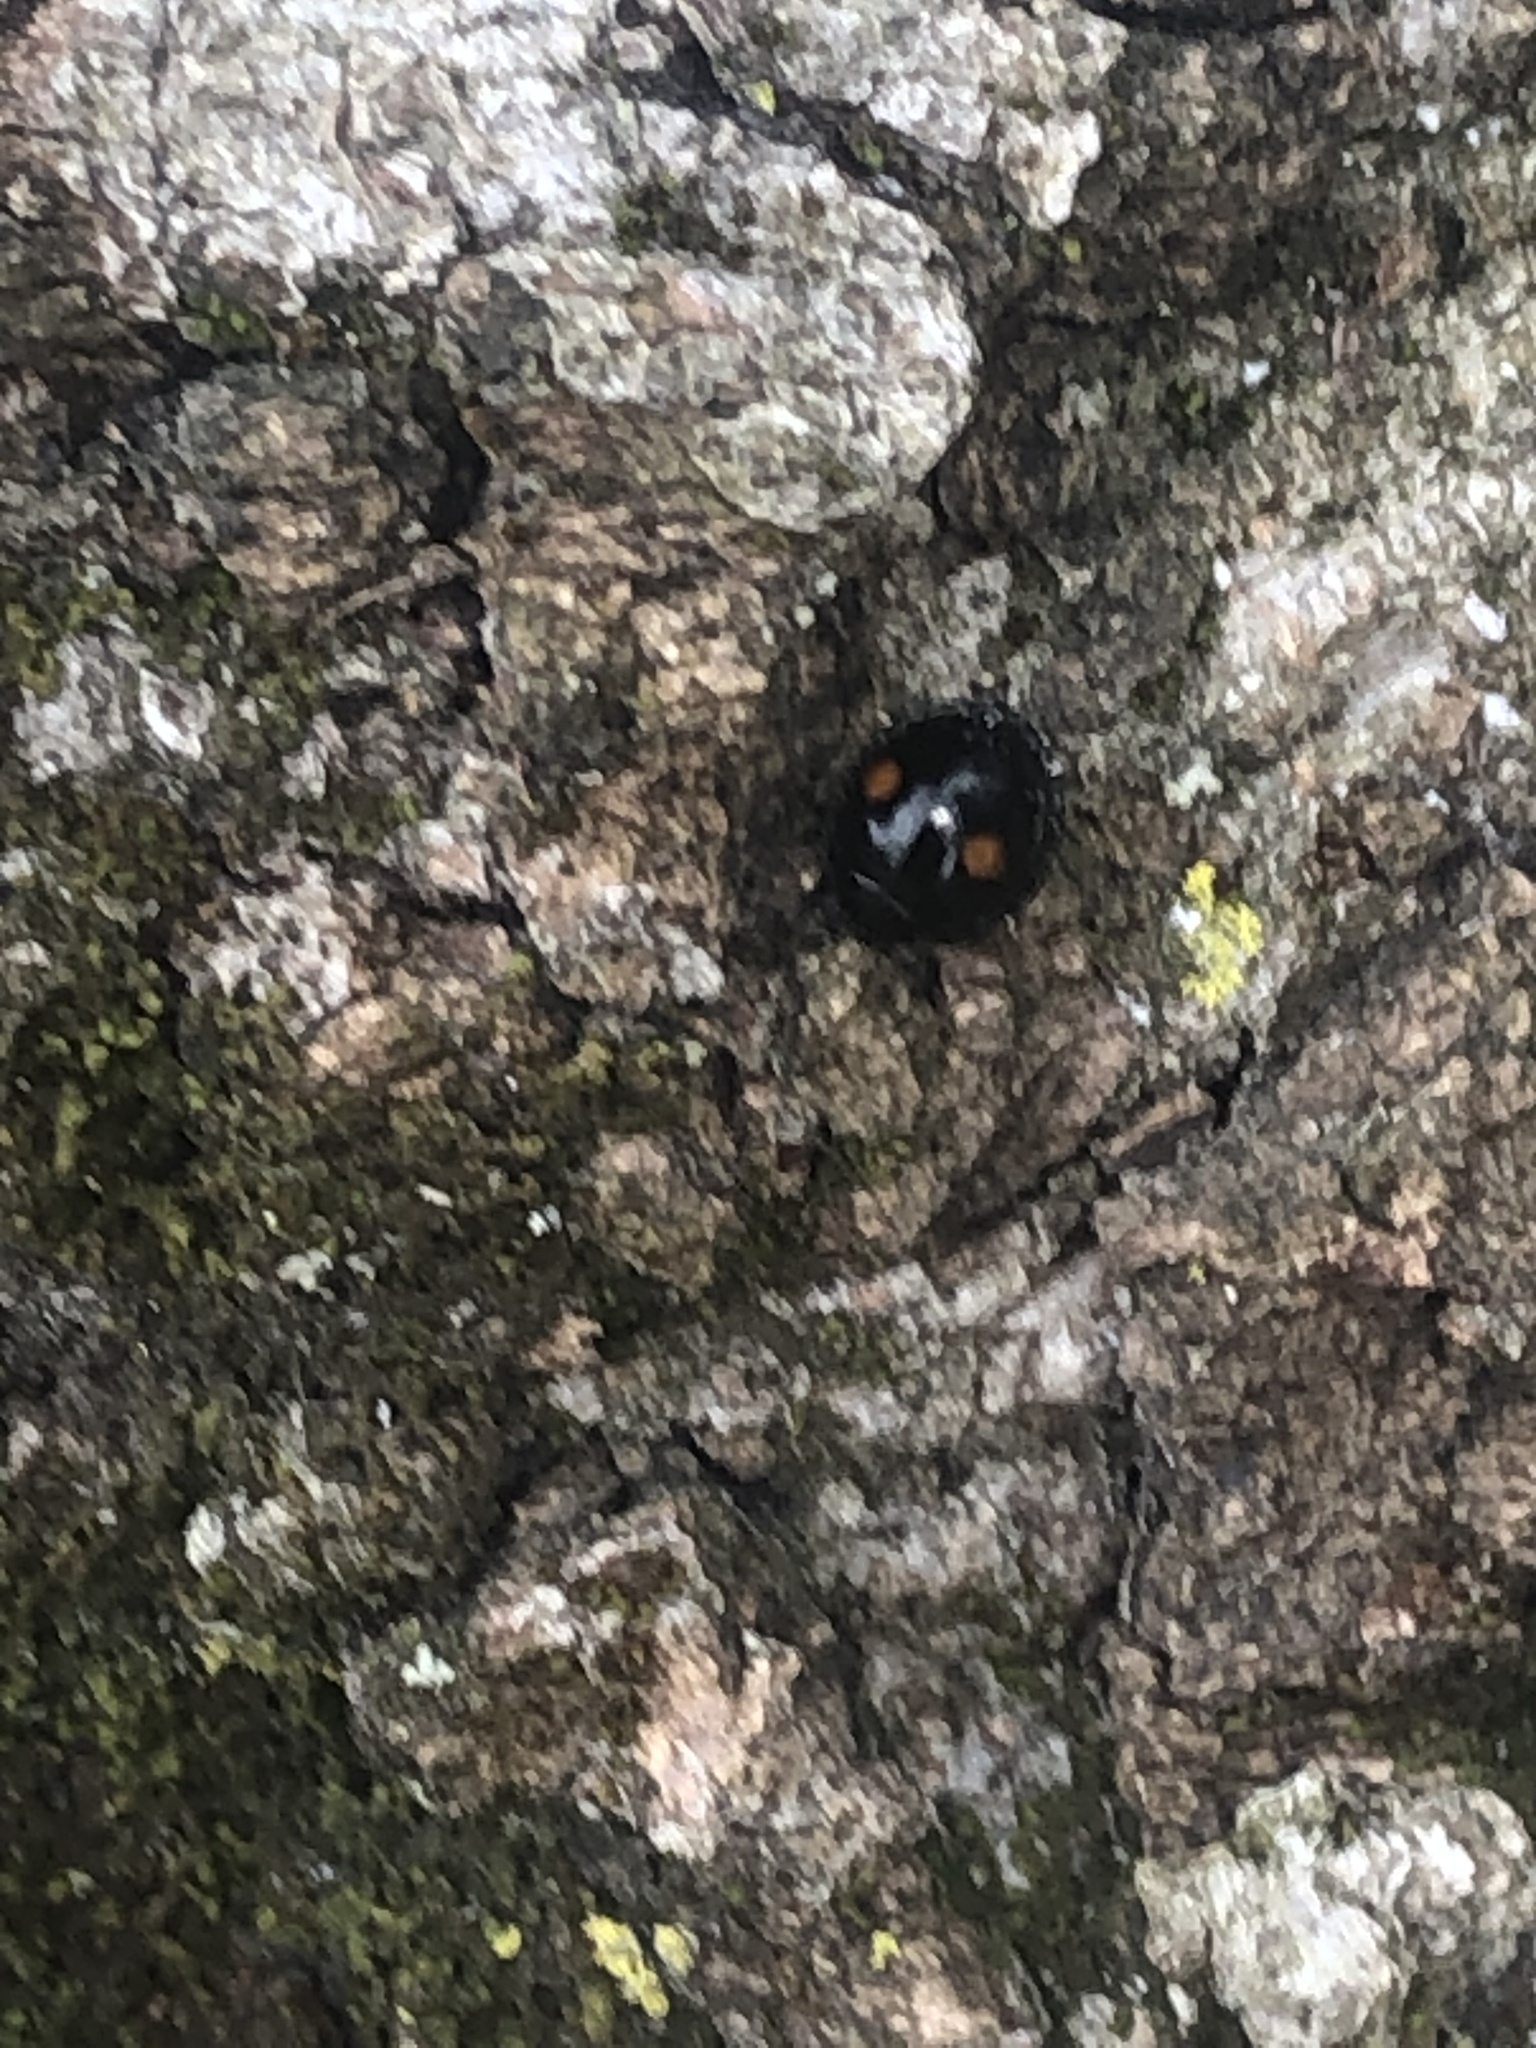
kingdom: Animalia
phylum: Arthropoda
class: Insecta
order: Coleoptera
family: Coccinellidae
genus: Chilocorus
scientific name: Chilocorus stigma
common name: Twicestabbed lady beetle
